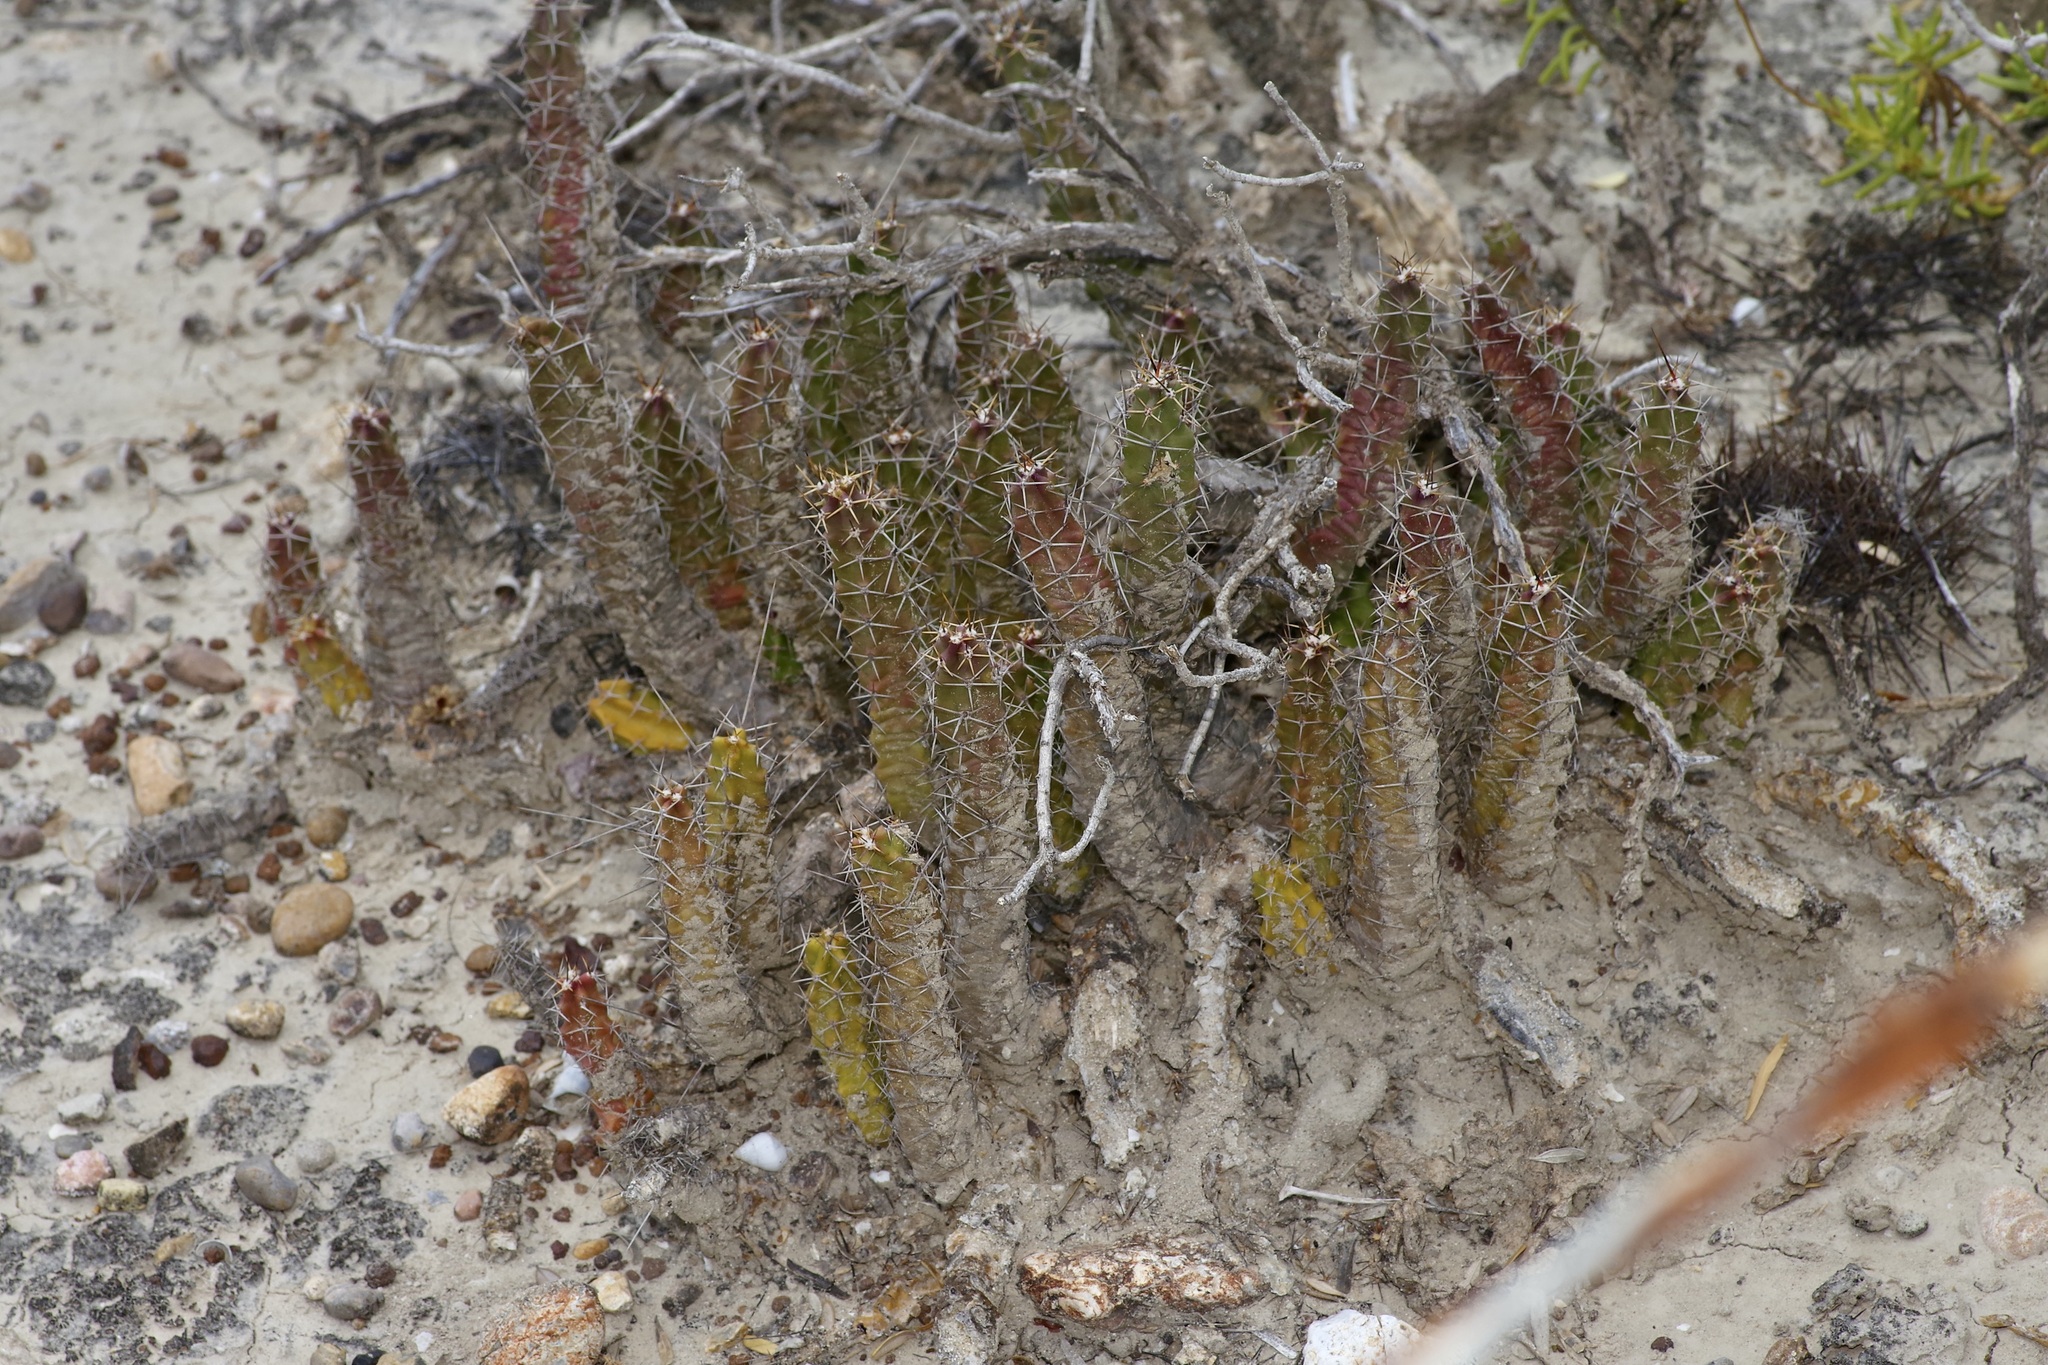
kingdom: Plantae
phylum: Tracheophyta
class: Magnoliopsida
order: Caryophyllales
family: Cactaceae
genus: Echinocereus
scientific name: Echinocereus pentalophus
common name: Ladyfinger cactus
